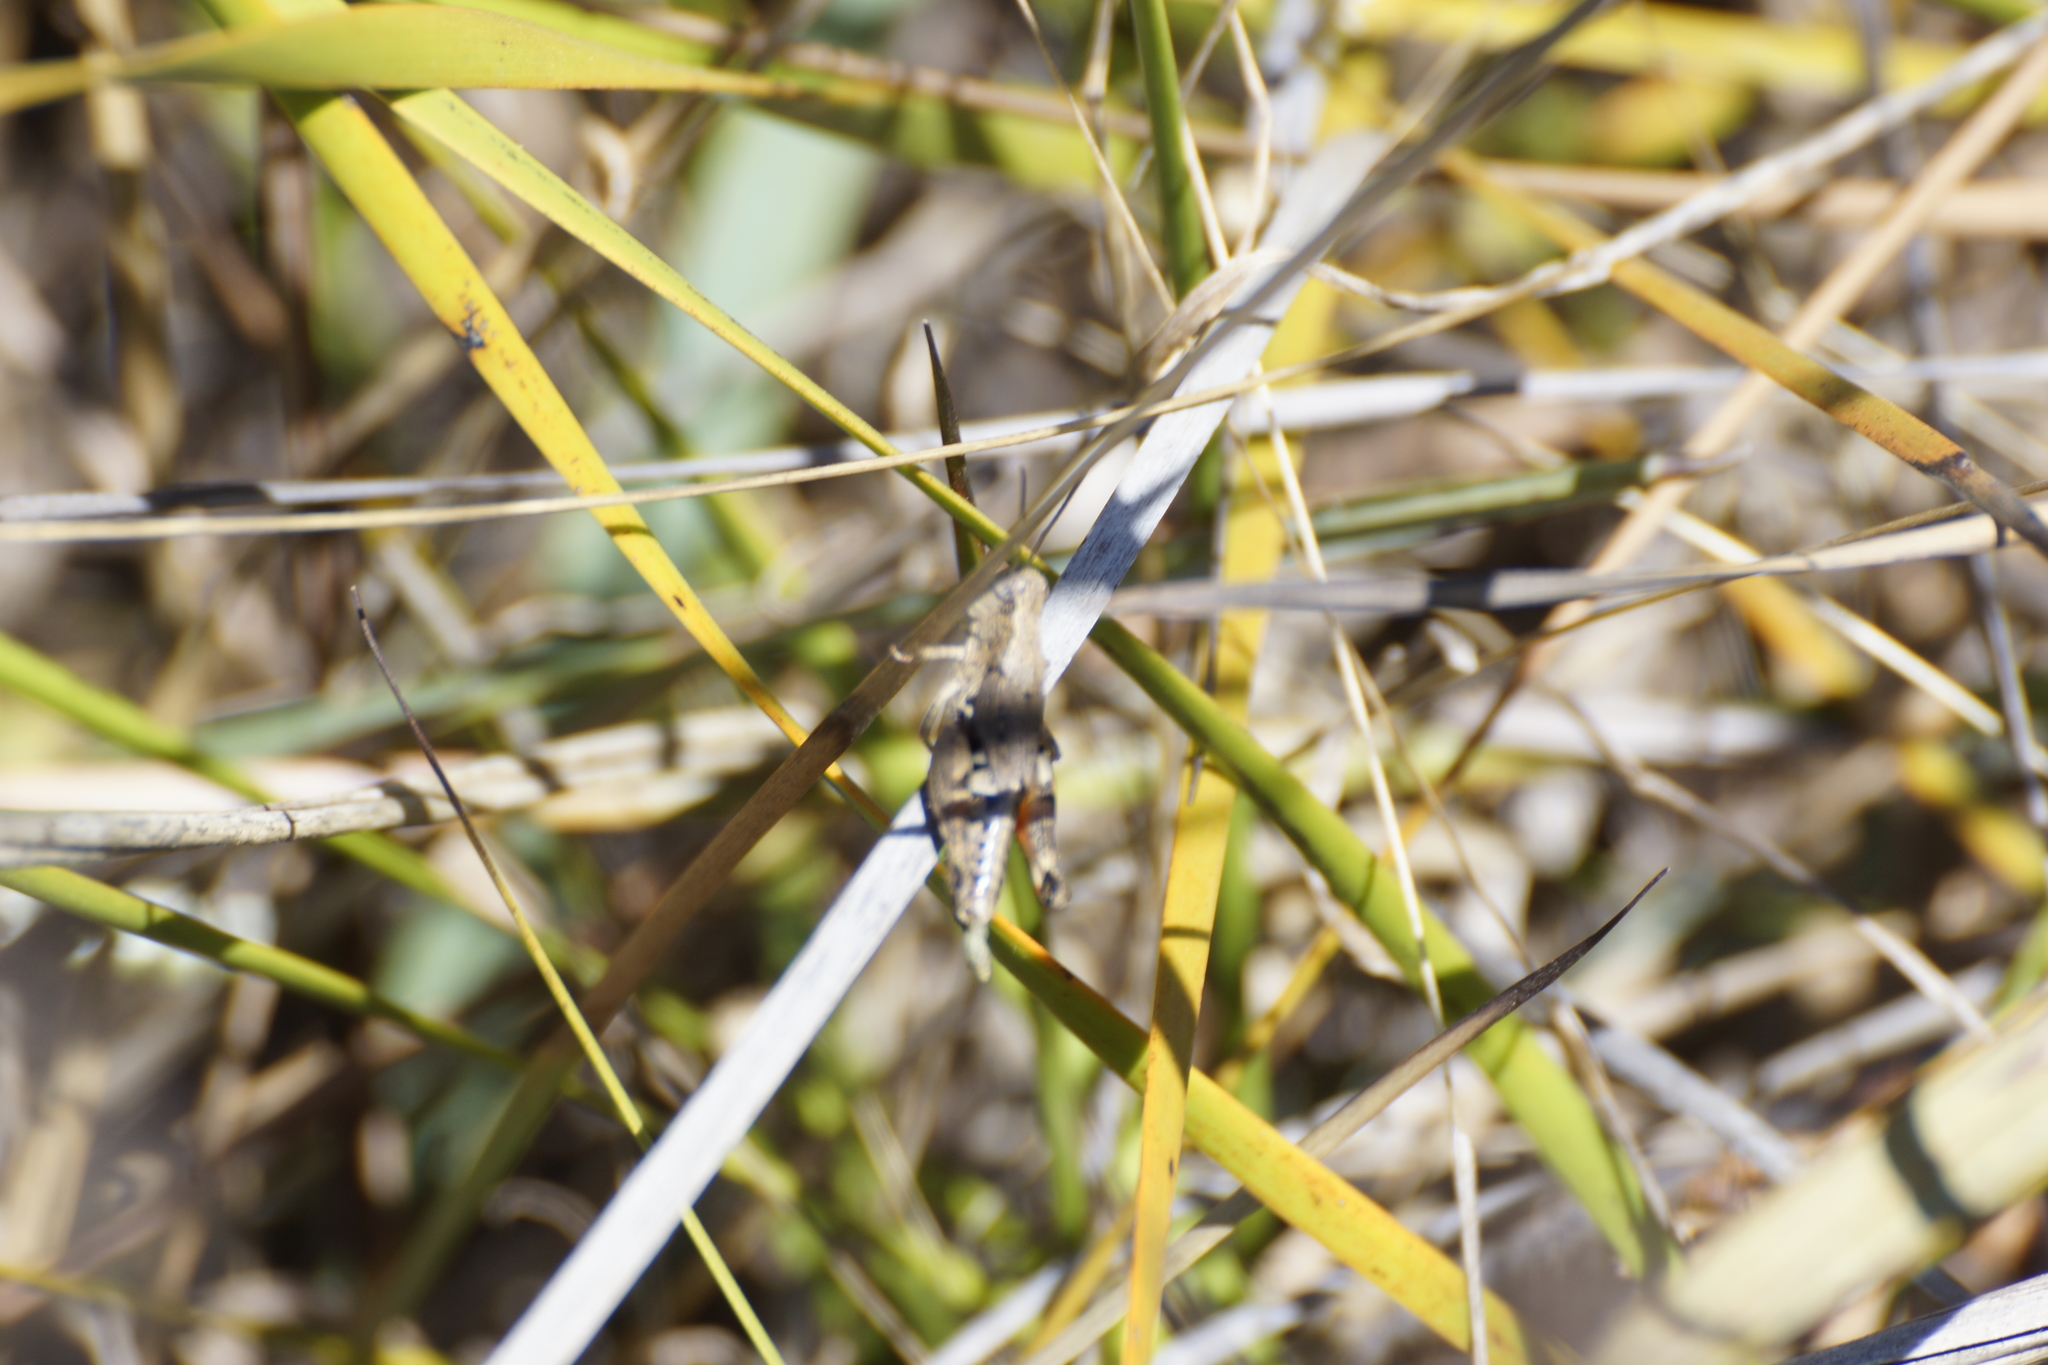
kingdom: Animalia
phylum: Arthropoda
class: Insecta
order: Orthoptera
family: Acrididae
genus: Phaulacridium
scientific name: Phaulacridium vittatum
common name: Wingless grasshopper
